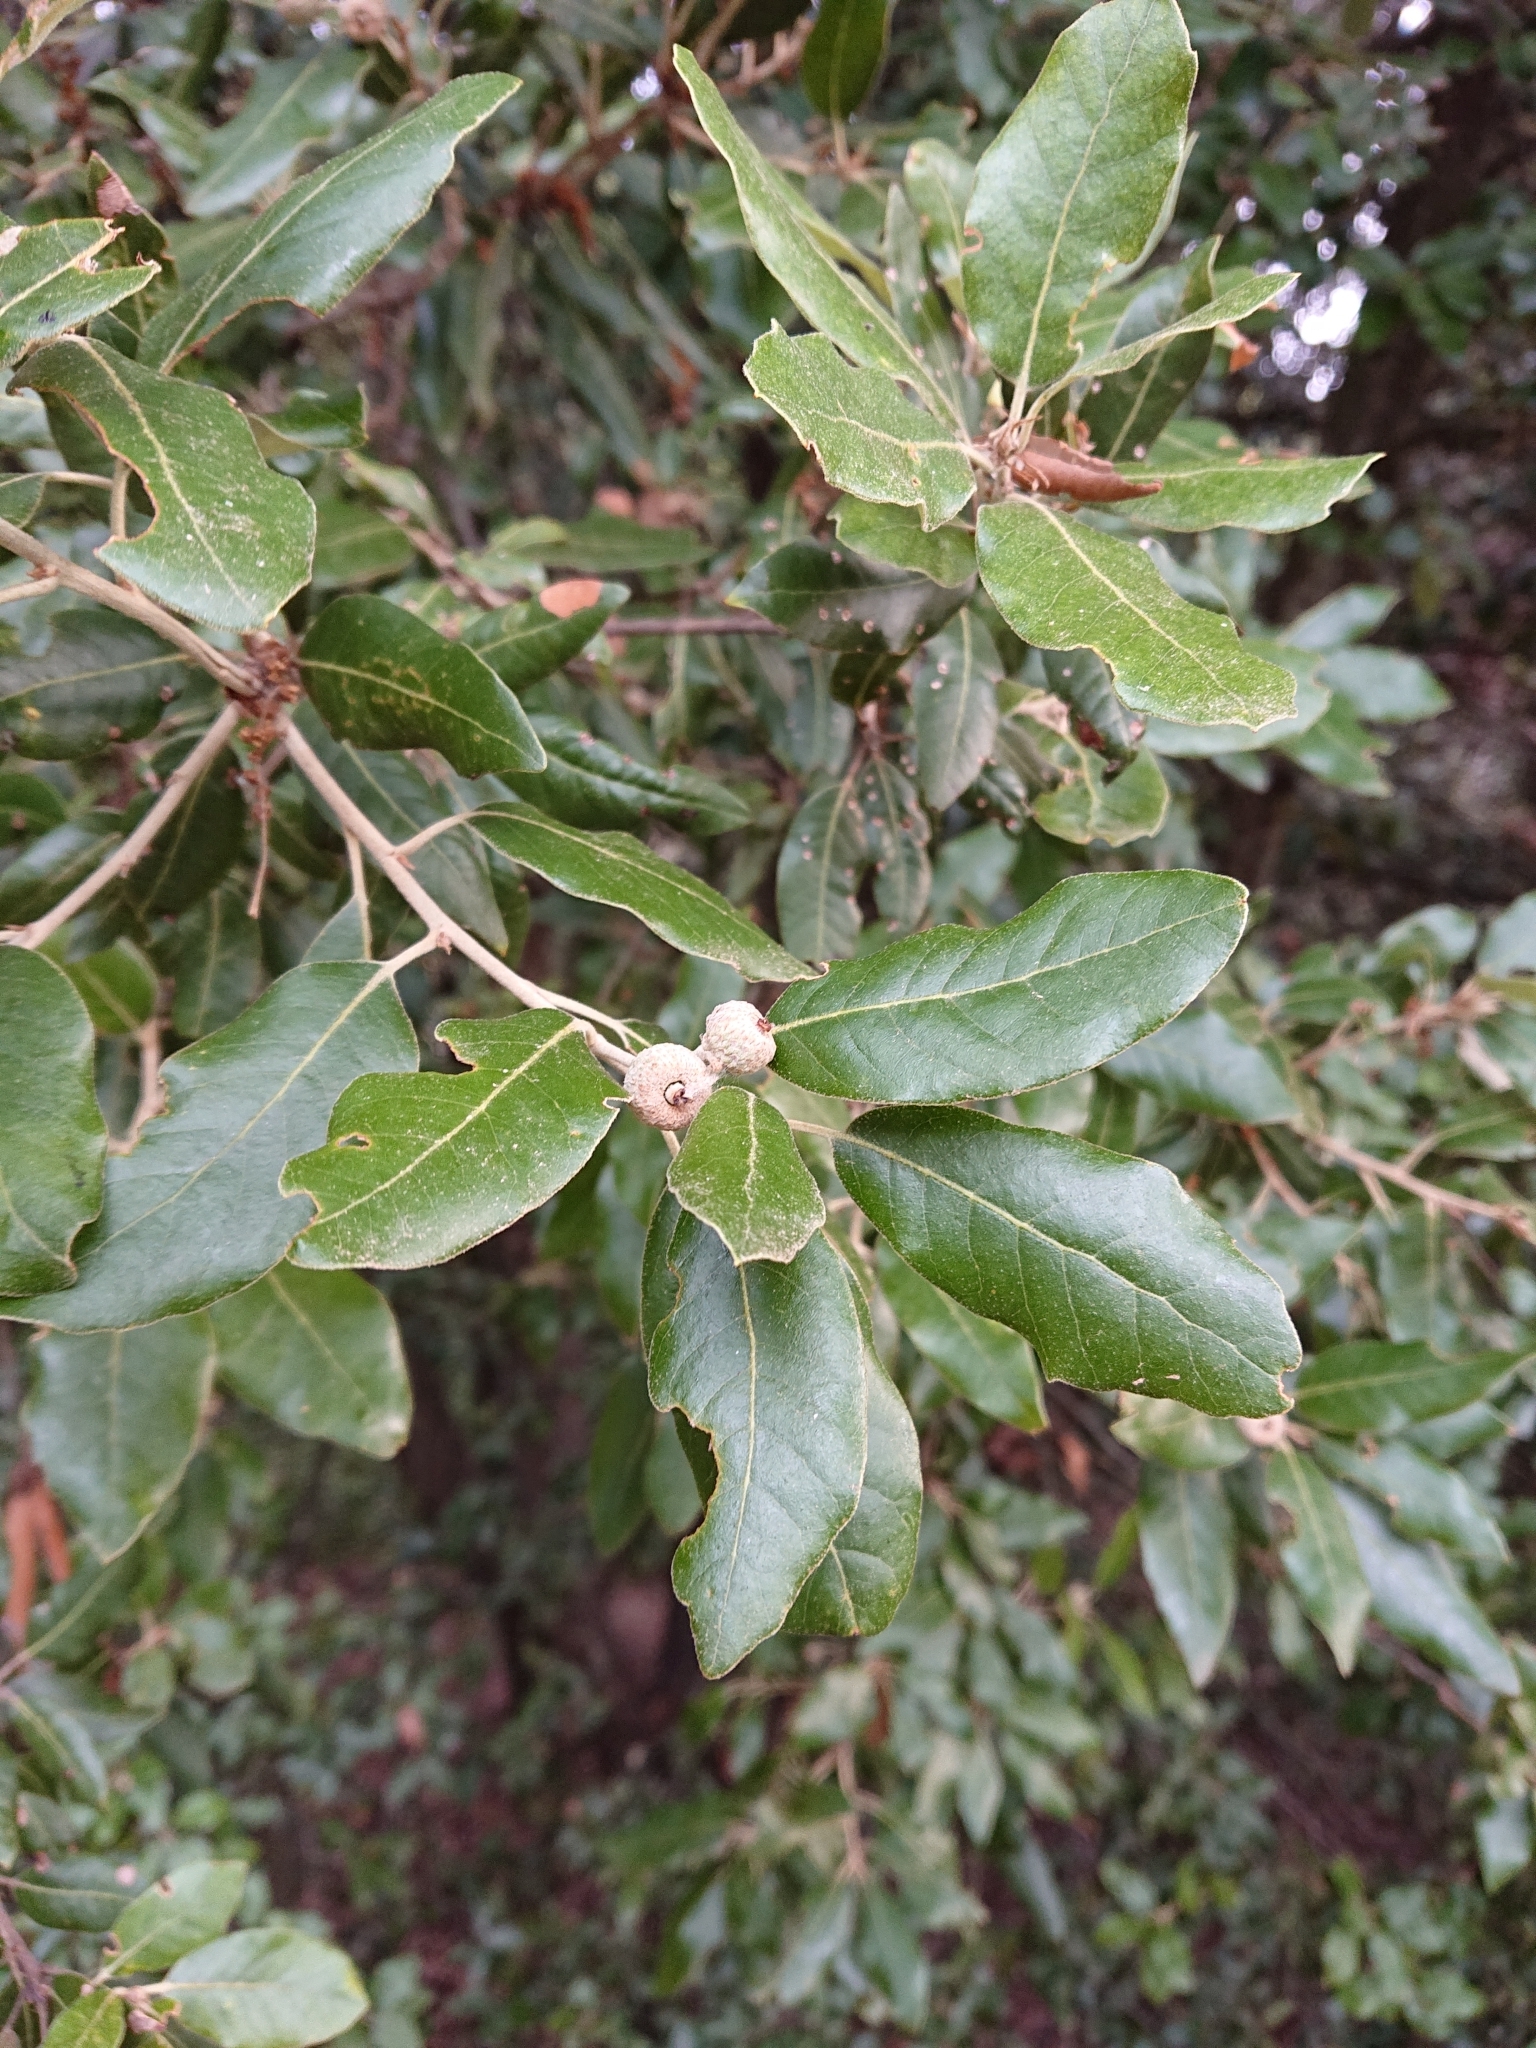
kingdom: Plantae
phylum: Tracheophyta
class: Magnoliopsida
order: Fagales
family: Fagaceae
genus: Quercus
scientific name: Quercus ilex
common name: Evergreen oak
